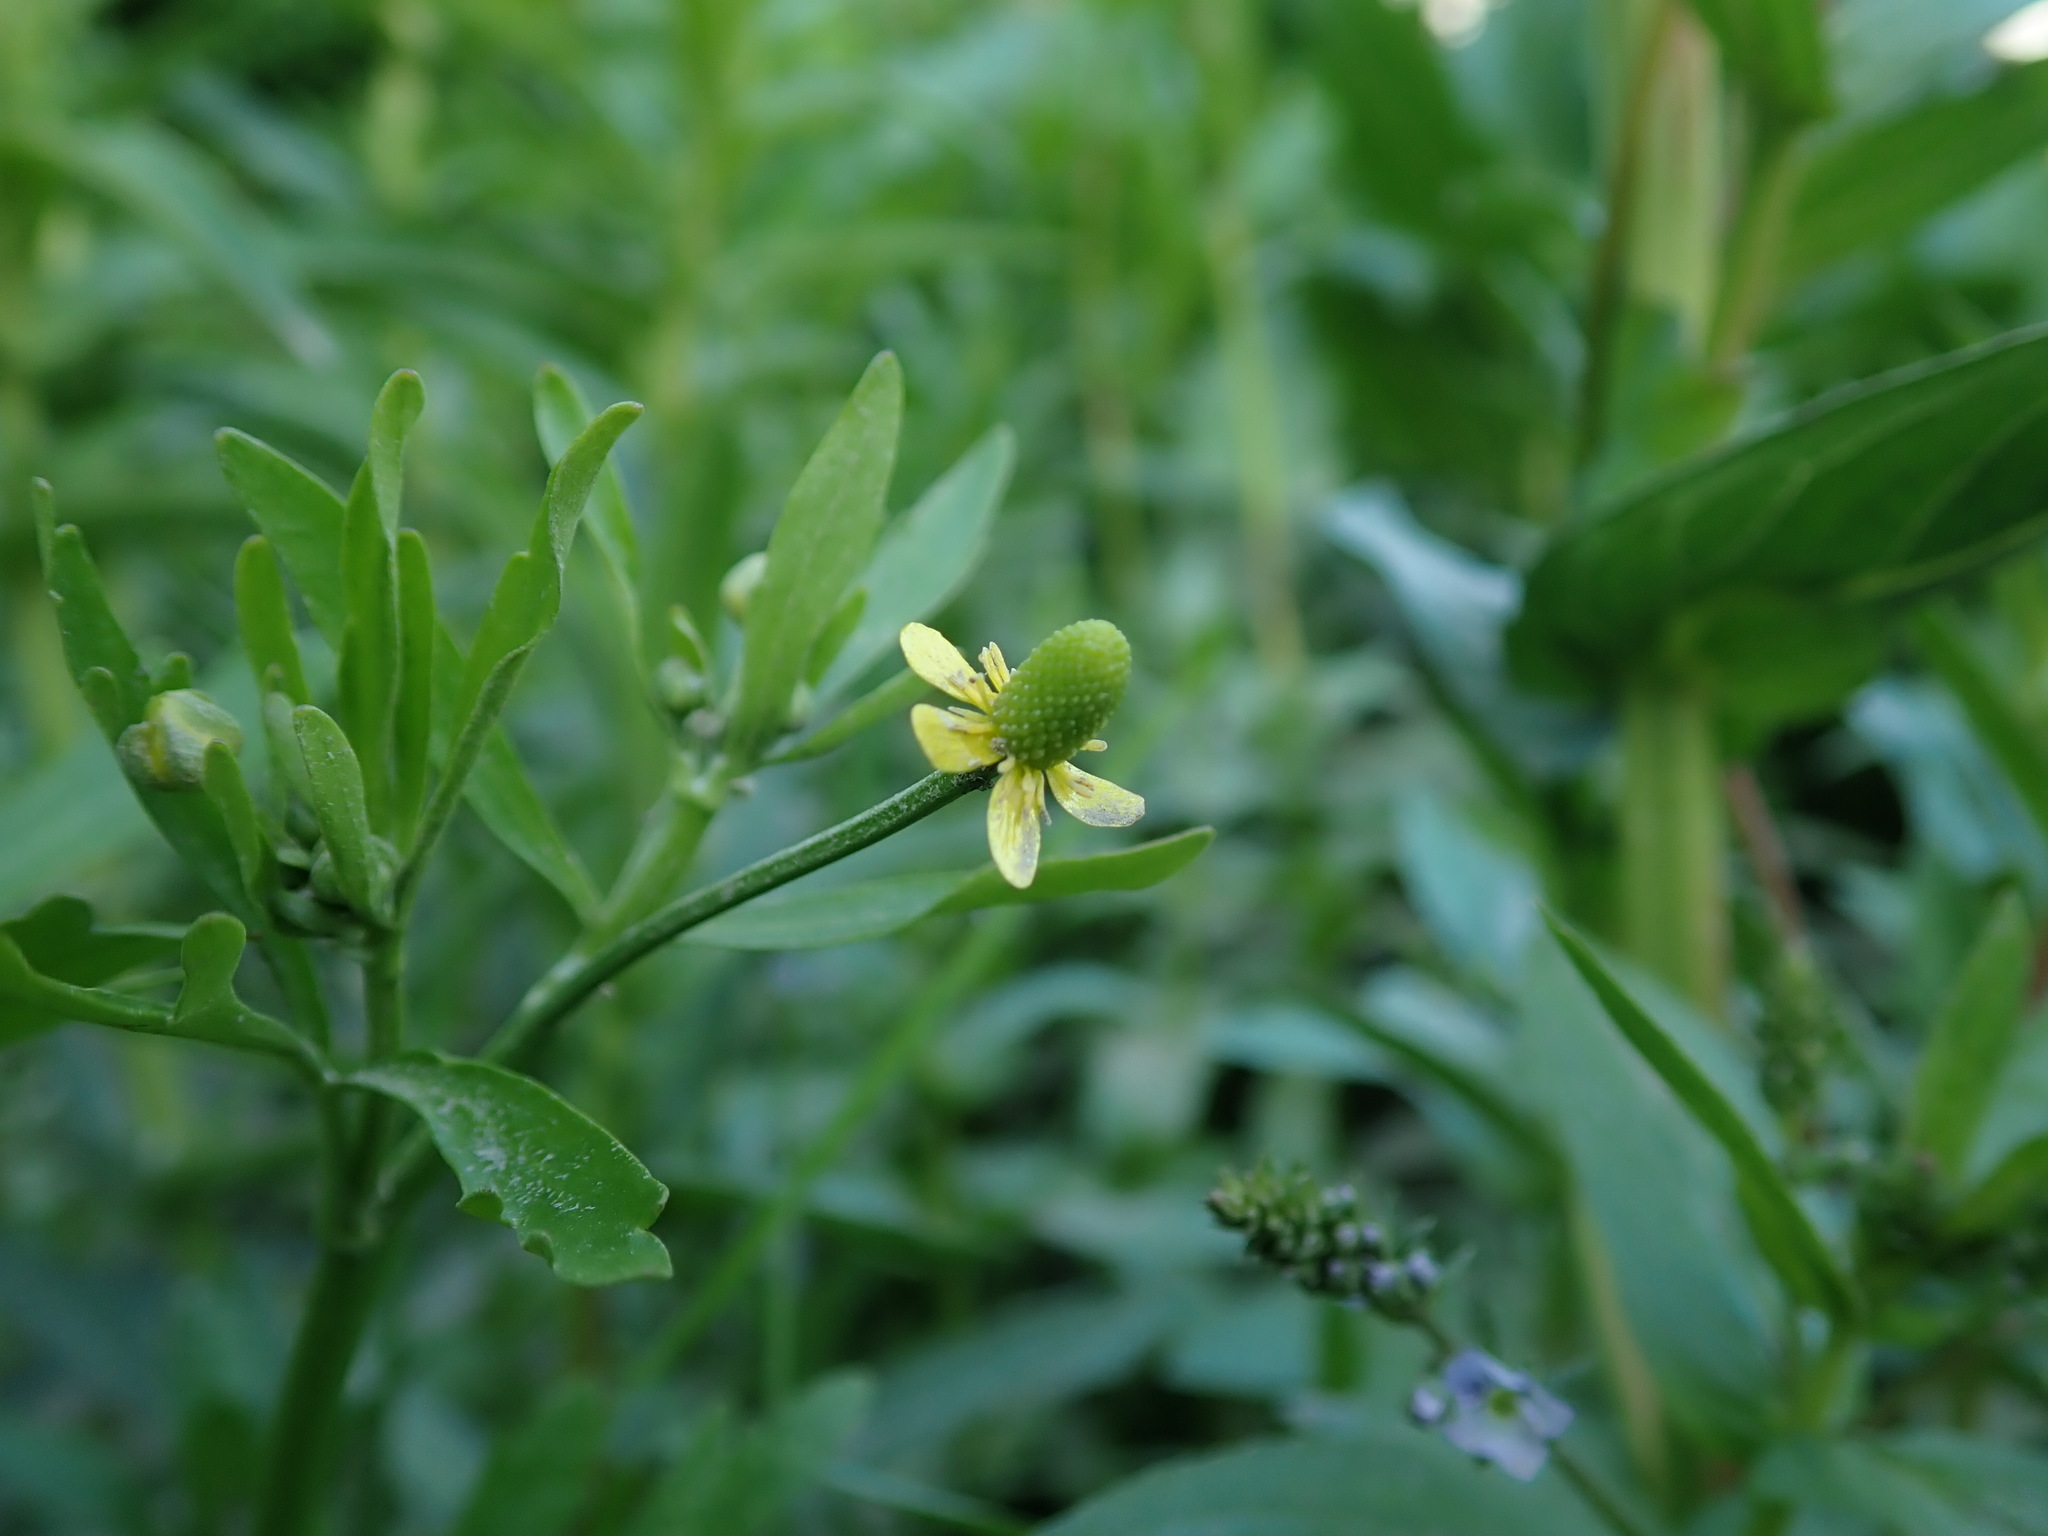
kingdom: Plantae
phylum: Tracheophyta
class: Magnoliopsida
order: Ranunculales
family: Ranunculaceae
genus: Ranunculus
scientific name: Ranunculus sceleratus
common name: Celery-leaved buttercup
